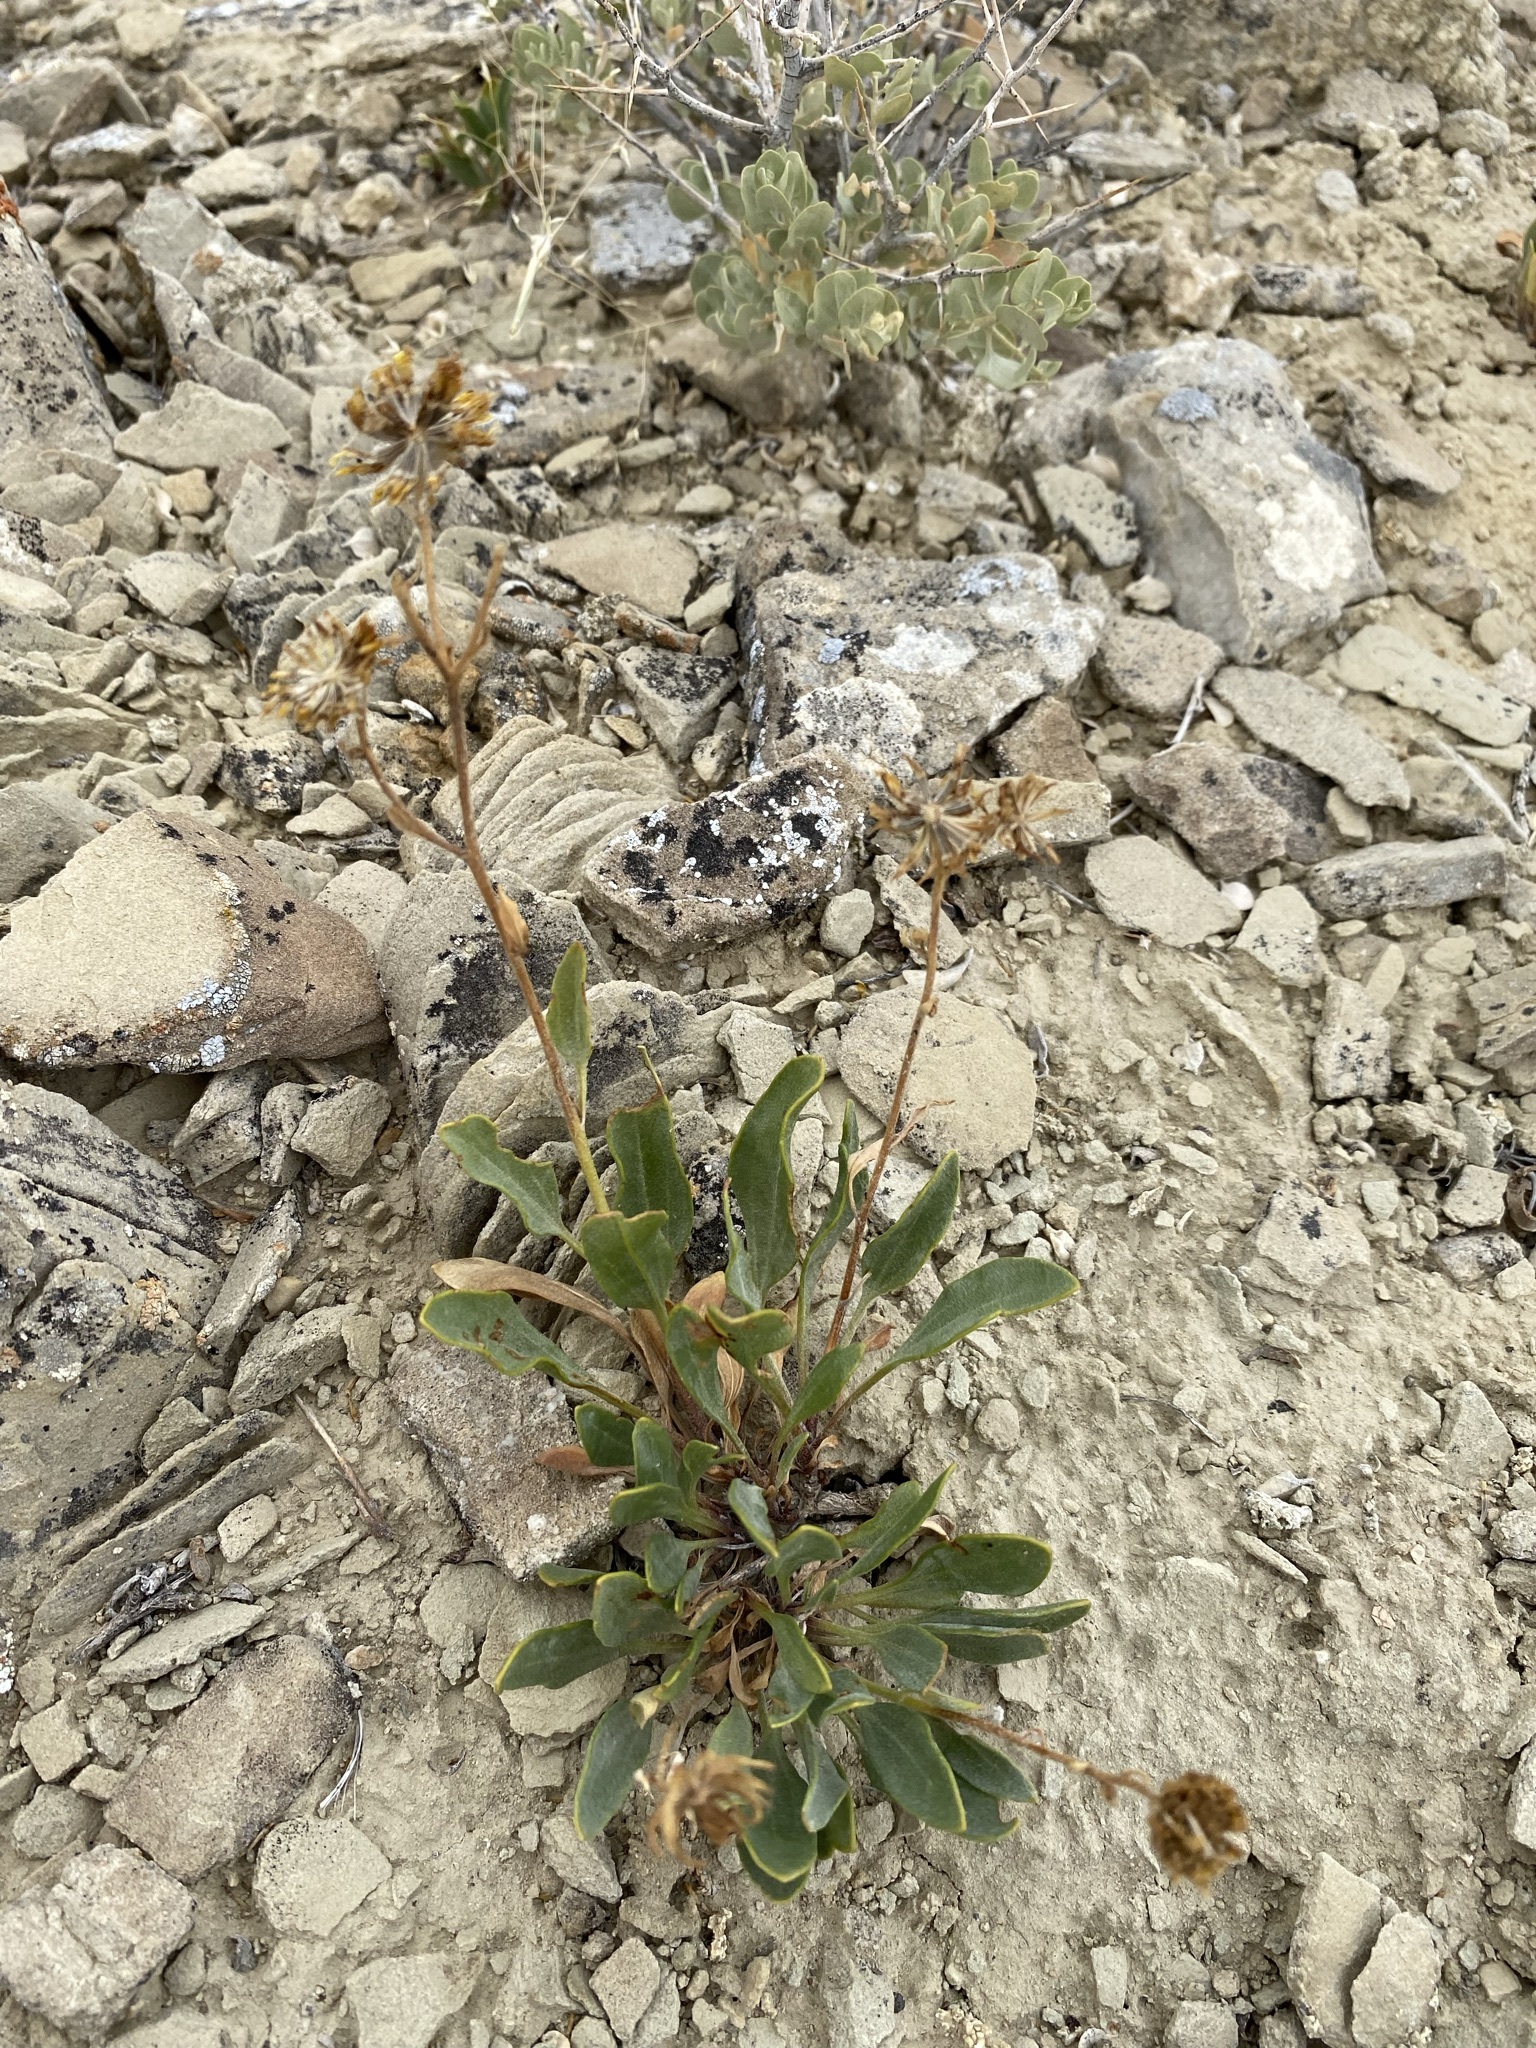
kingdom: Plantae
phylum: Tracheophyta
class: Magnoliopsida
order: Asterales
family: Asteraceae
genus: Platyschkuhria
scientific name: Platyschkuhria integrifolia
